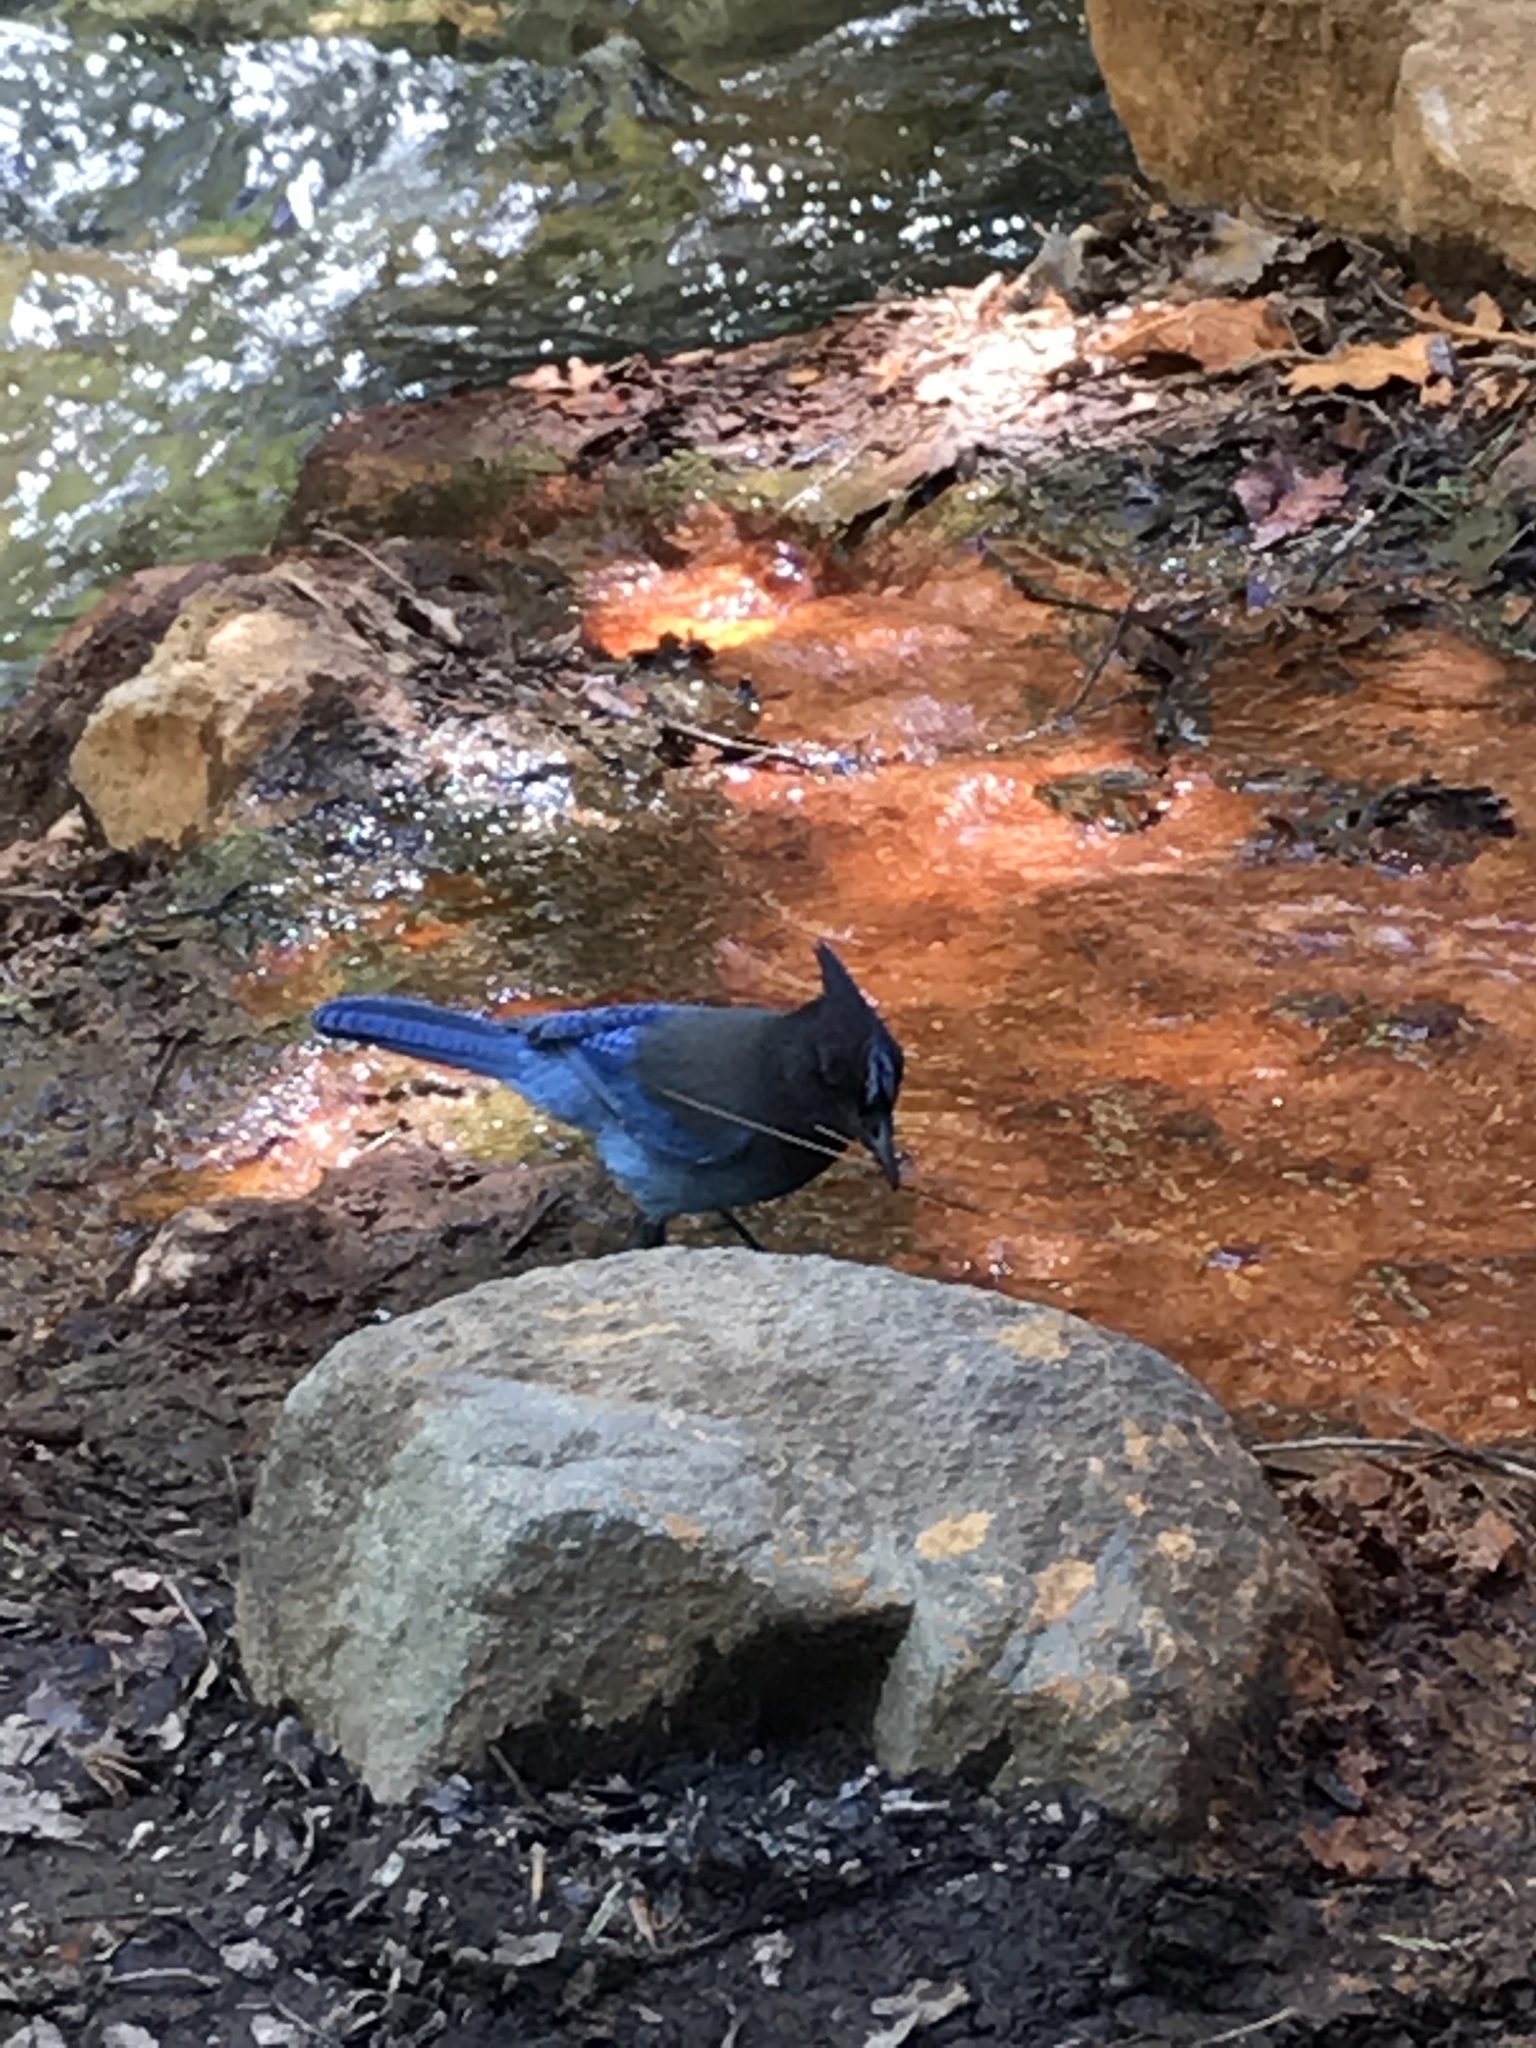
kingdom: Animalia
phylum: Chordata
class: Aves
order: Passeriformes
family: Corvidae
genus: Cyanocitta
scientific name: Cyanocitta stelleri
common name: Steller's jay
